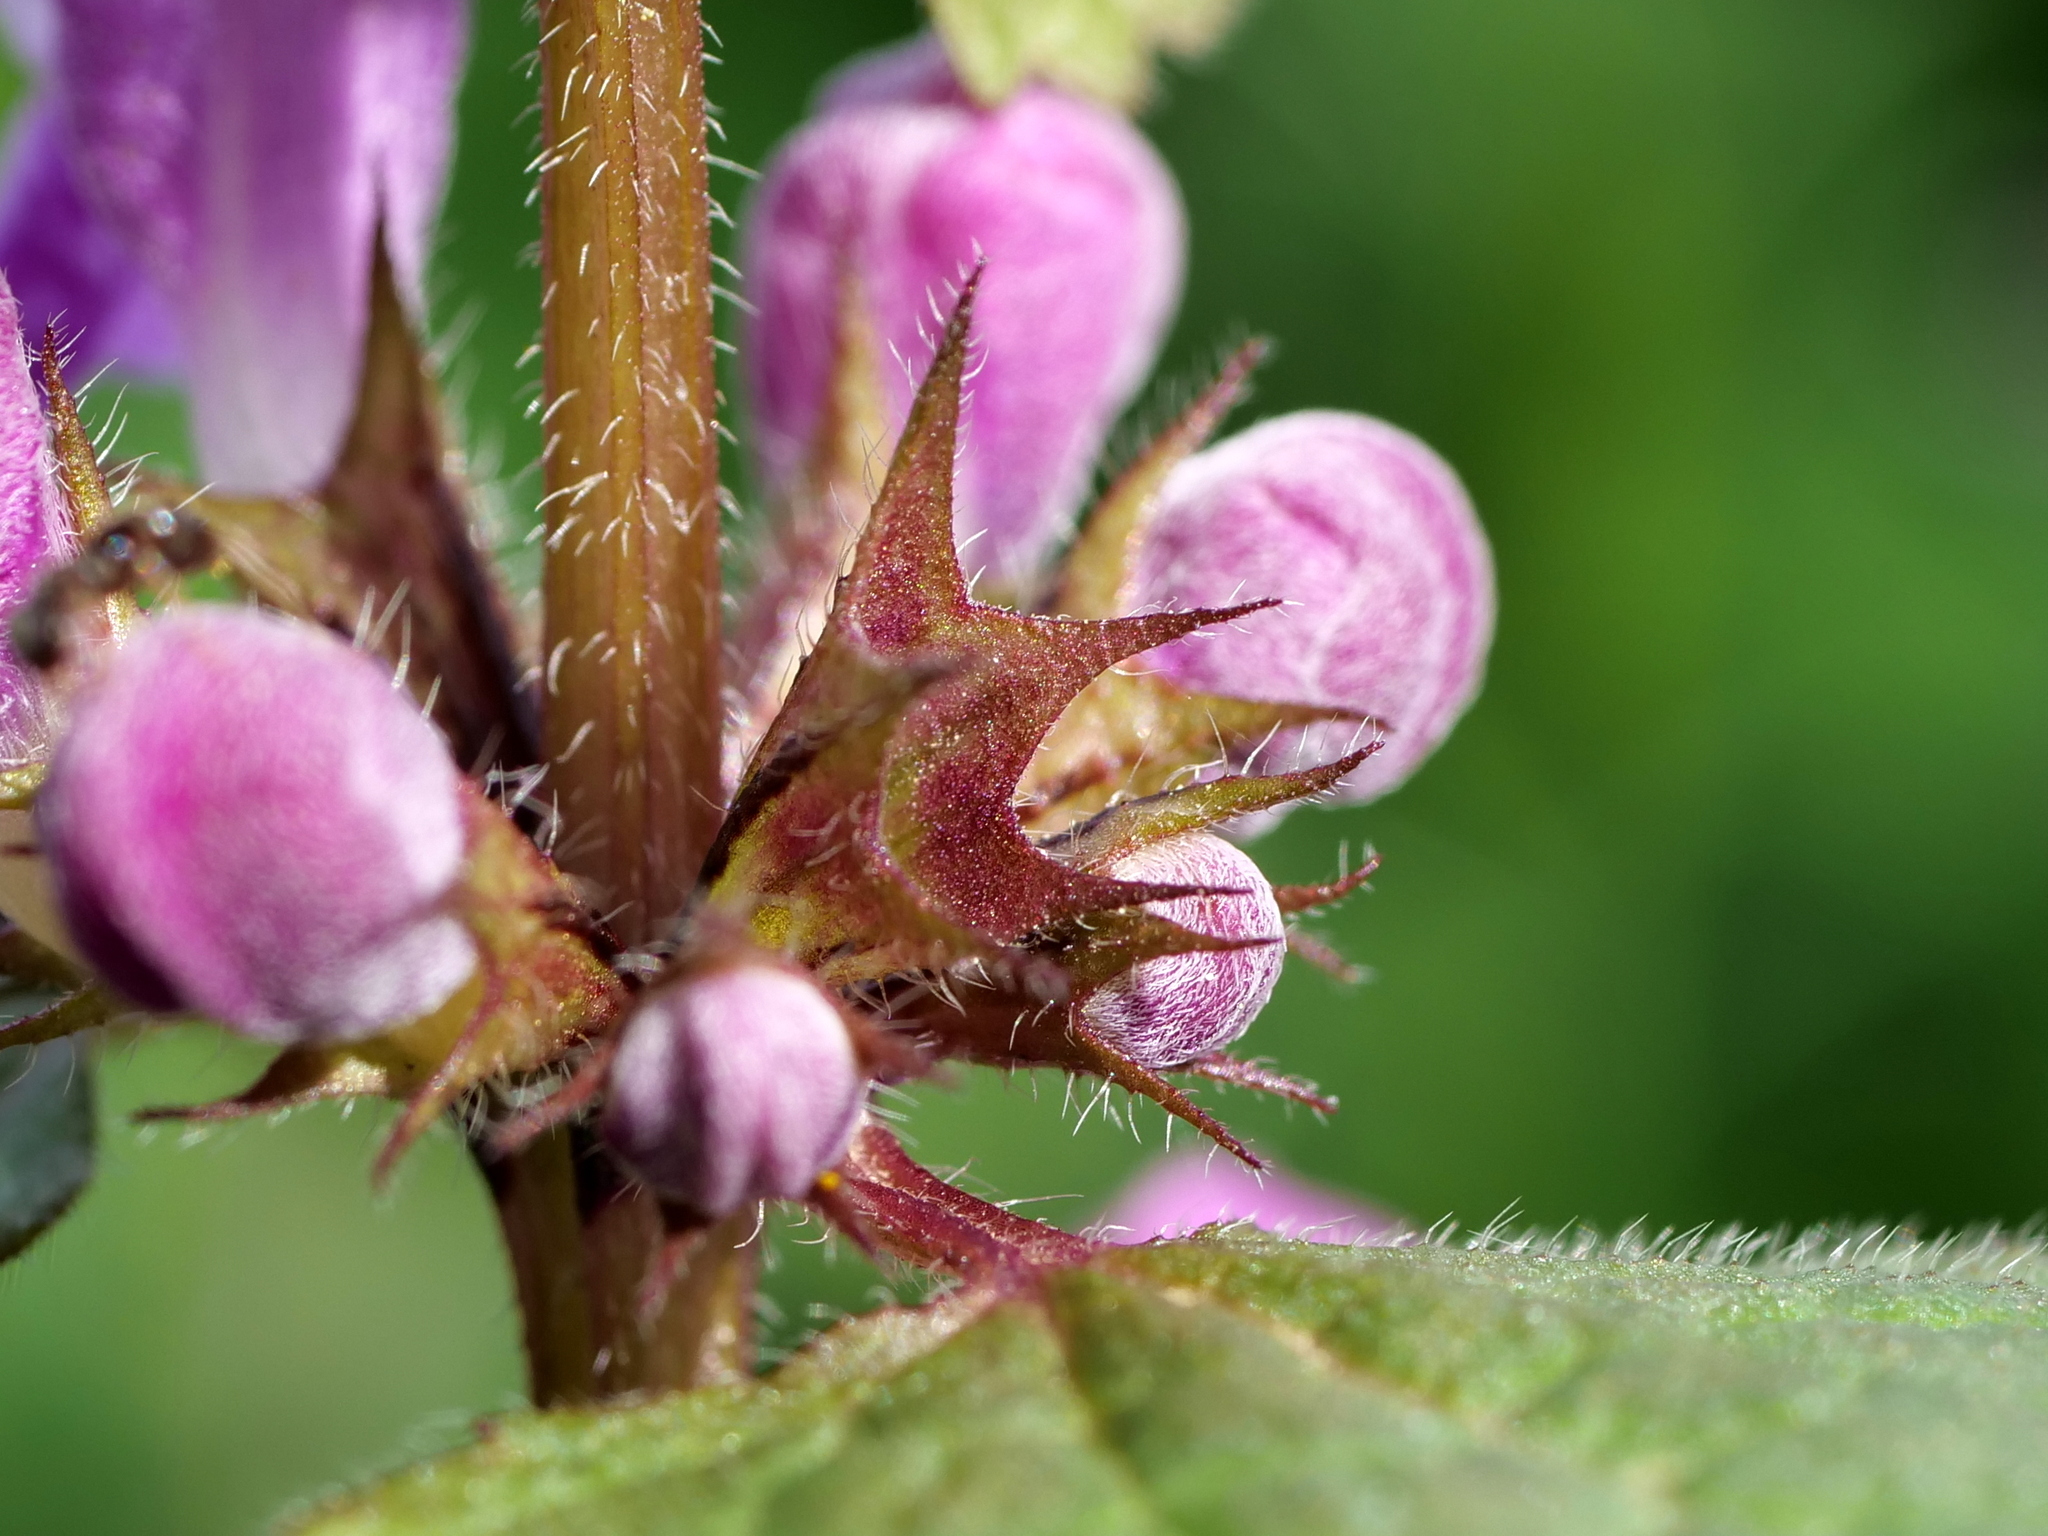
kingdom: Plantae
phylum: Tracheophyta
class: Magnoliopsida
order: Lamiales
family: Lamiaceae
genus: Lamium
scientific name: Lamium maculatum
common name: Spotted dead-nettle
